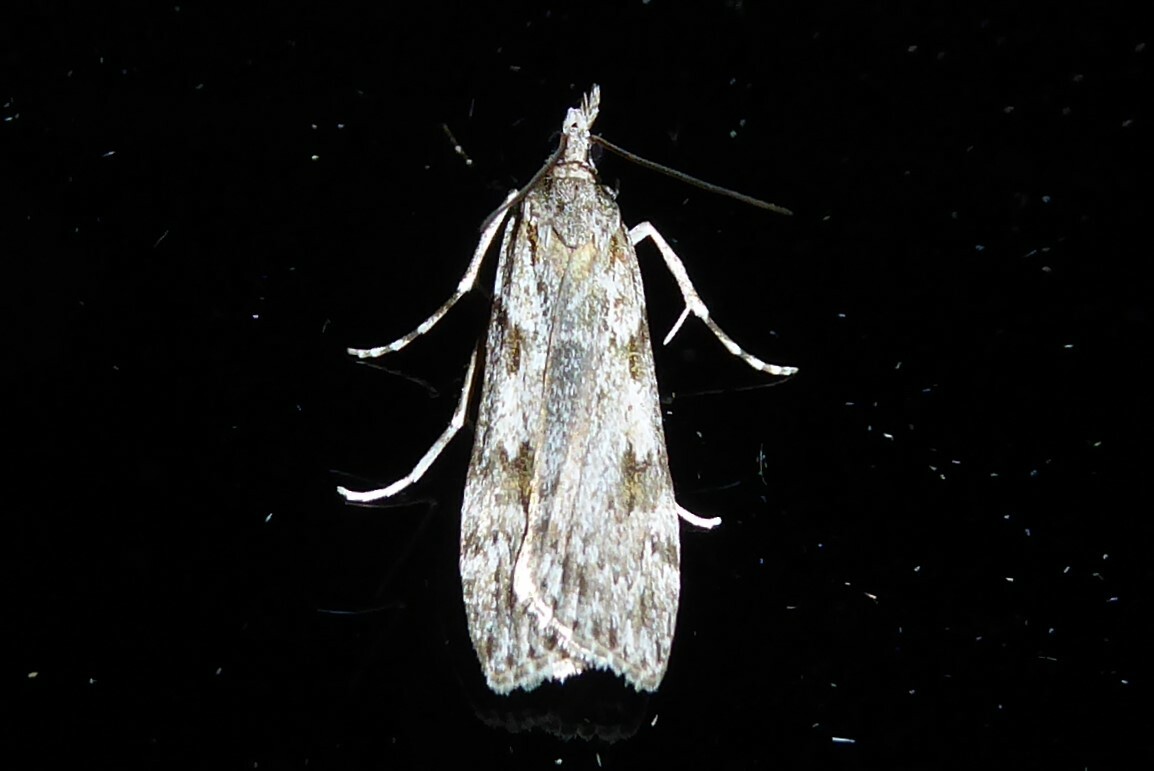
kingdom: Animalia
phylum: Arthropoda
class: Insecta
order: Lepidoptera
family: Crambidae
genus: Scoparia
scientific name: Scoparia halopis
